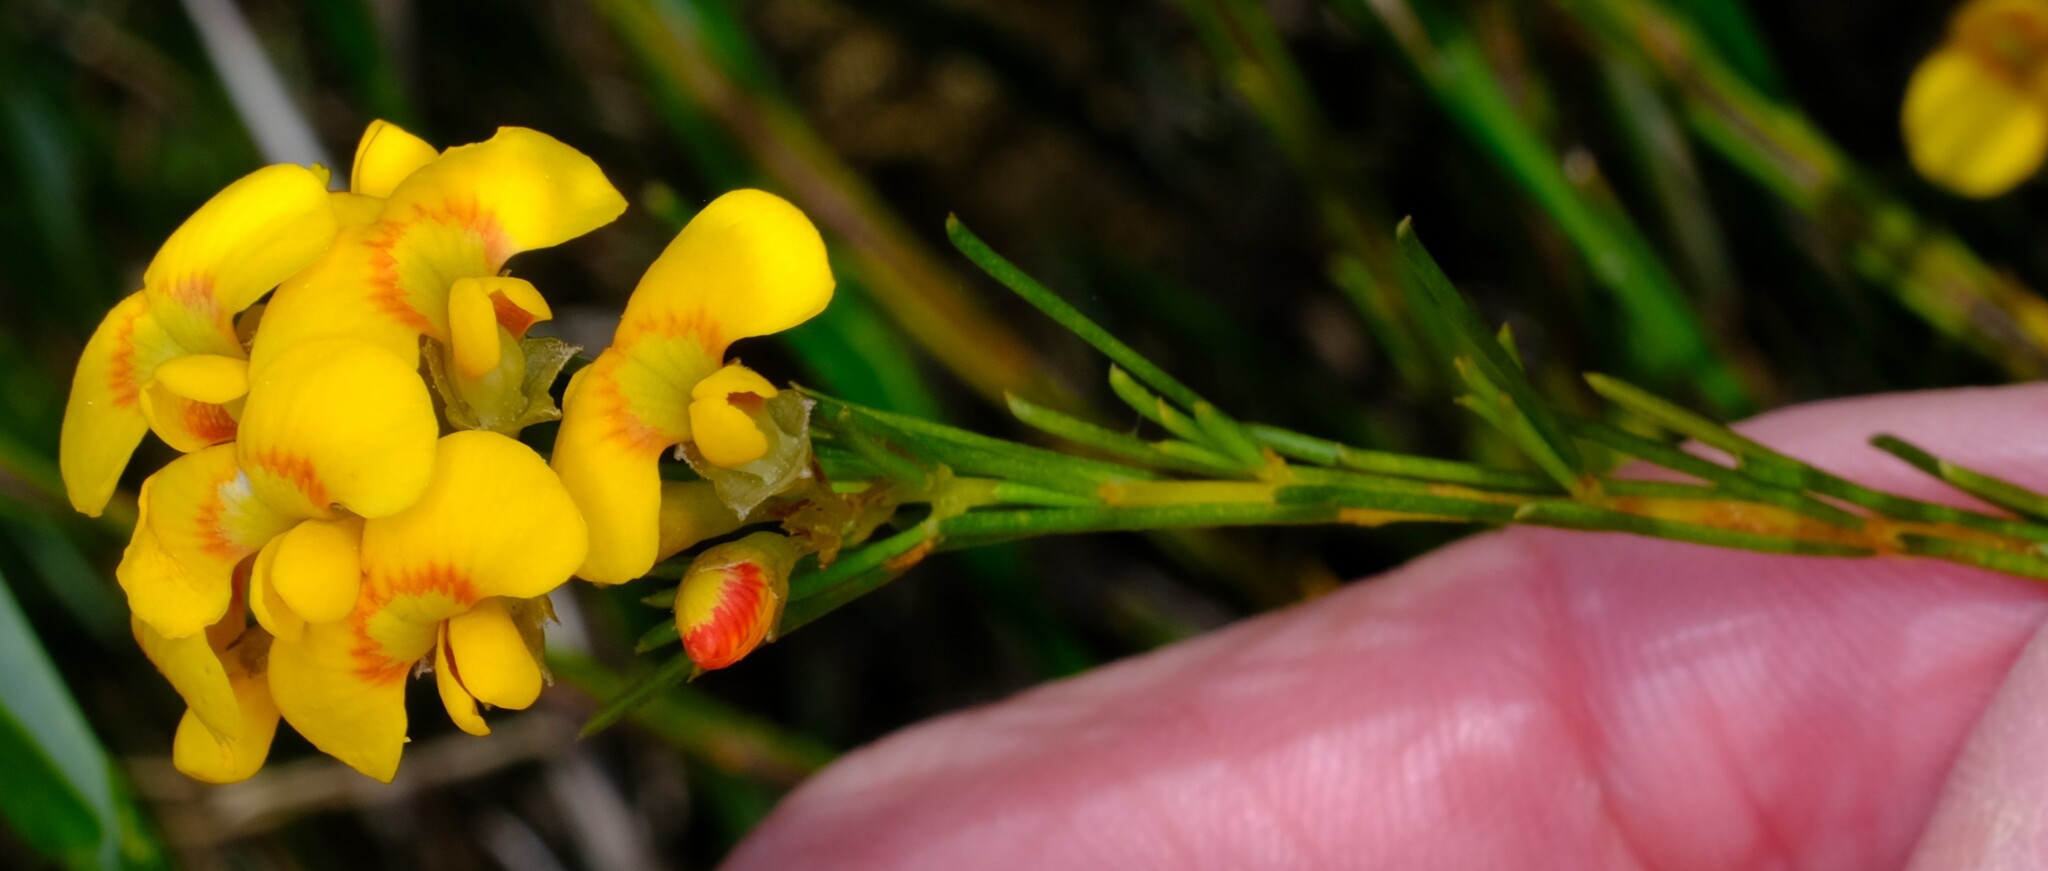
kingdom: Plantae
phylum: Tracheophyta
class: Magnoliopsida
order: Fabales
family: Fabaceae
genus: Dillwynia
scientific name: Dillwynia glaberrima
